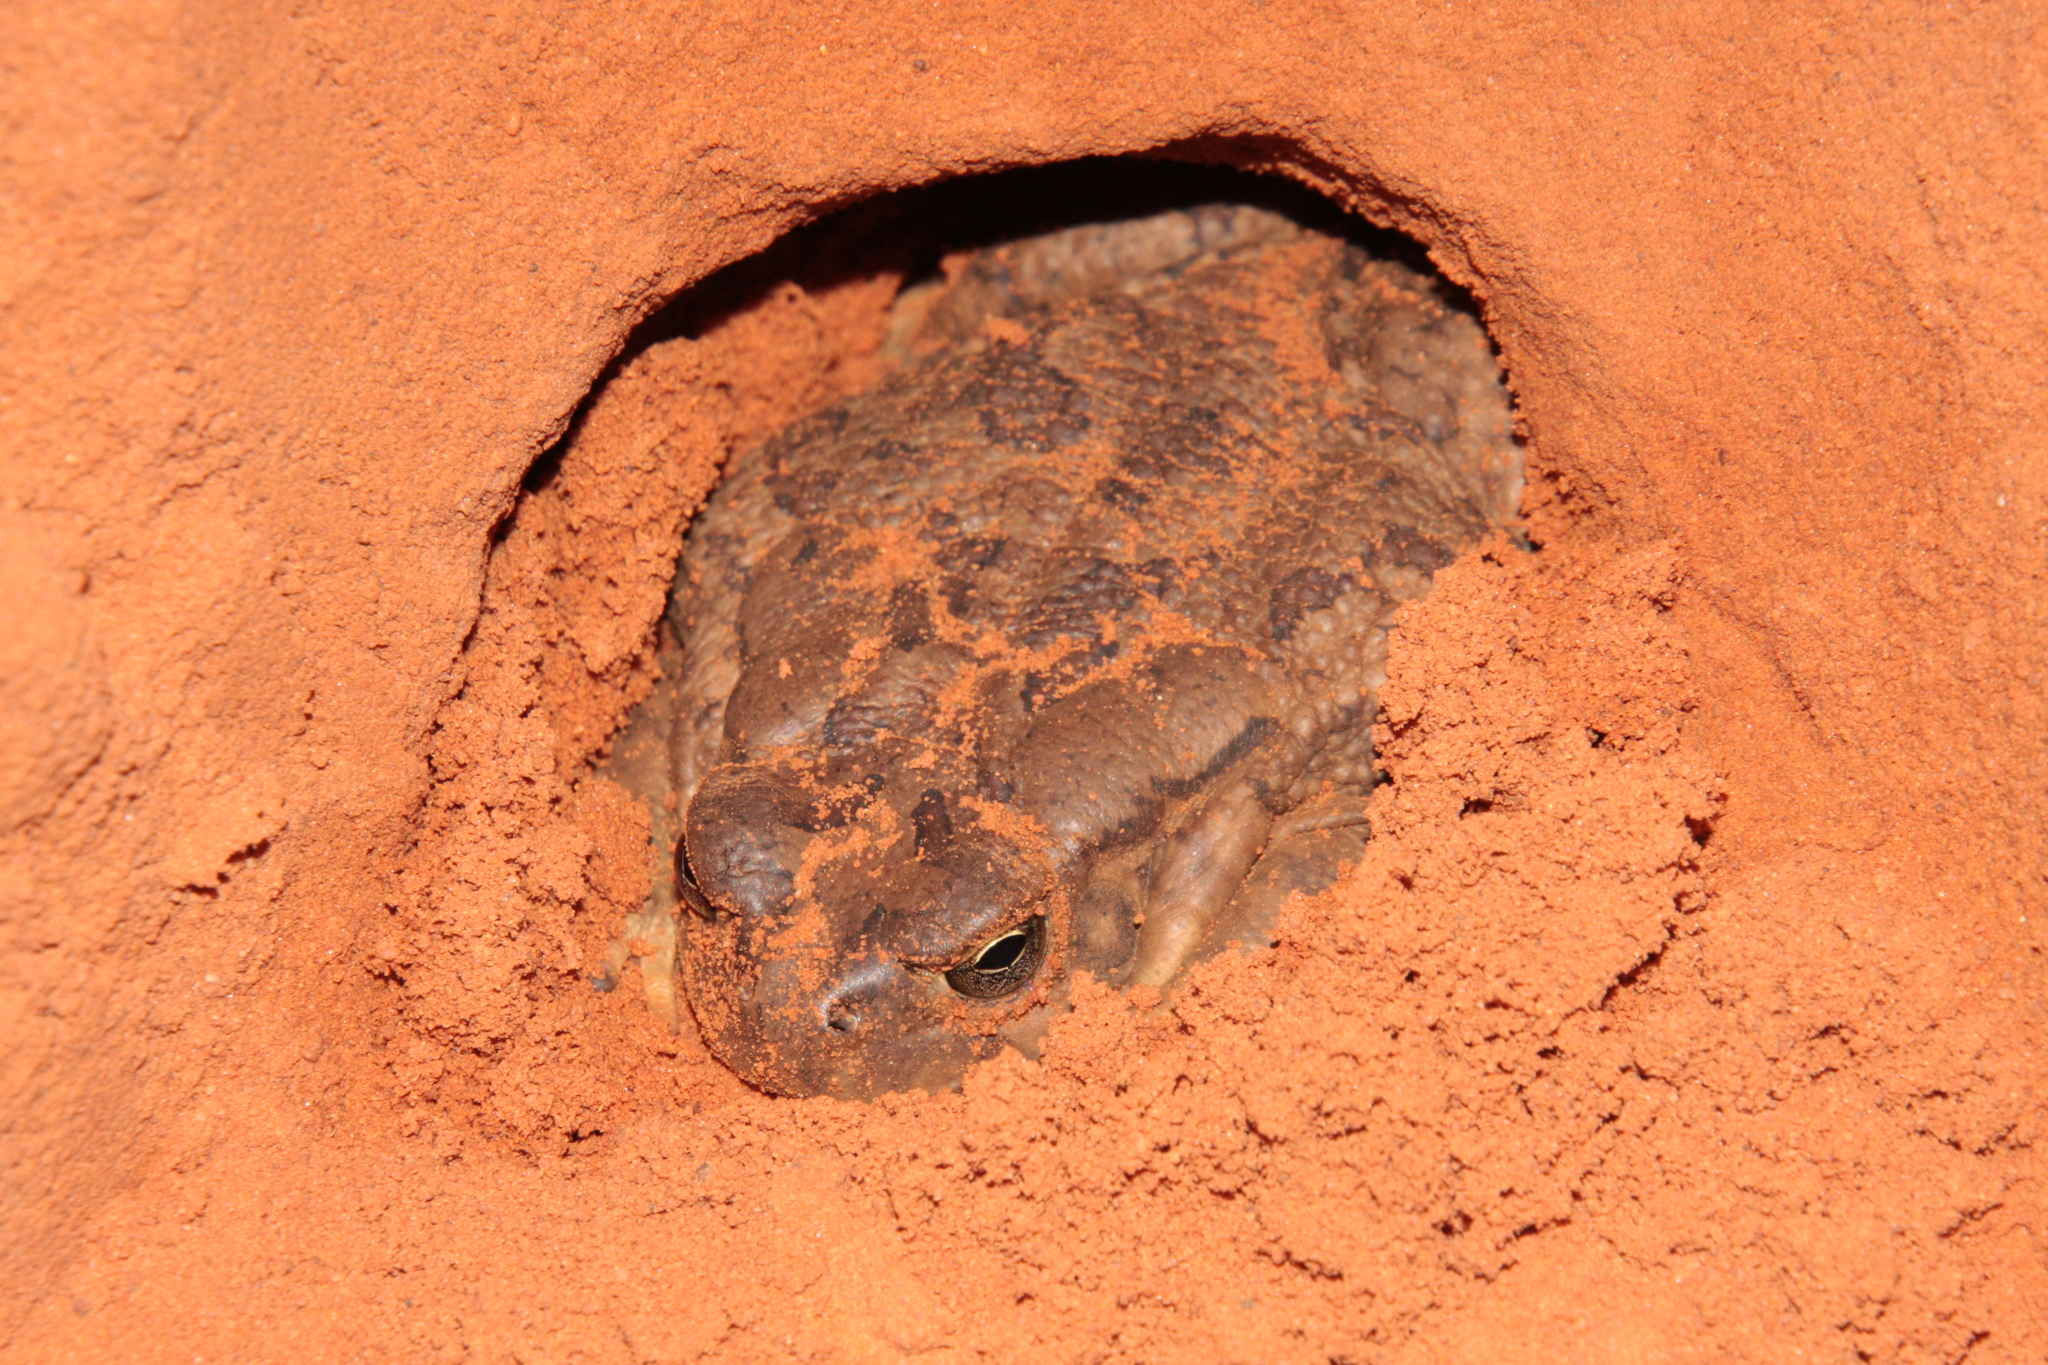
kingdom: Animalia
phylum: Chordata
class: Amphibia
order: Anura
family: Bufonidae
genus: Sclerophrys
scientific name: Sclerophrys regularis
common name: African common toad
